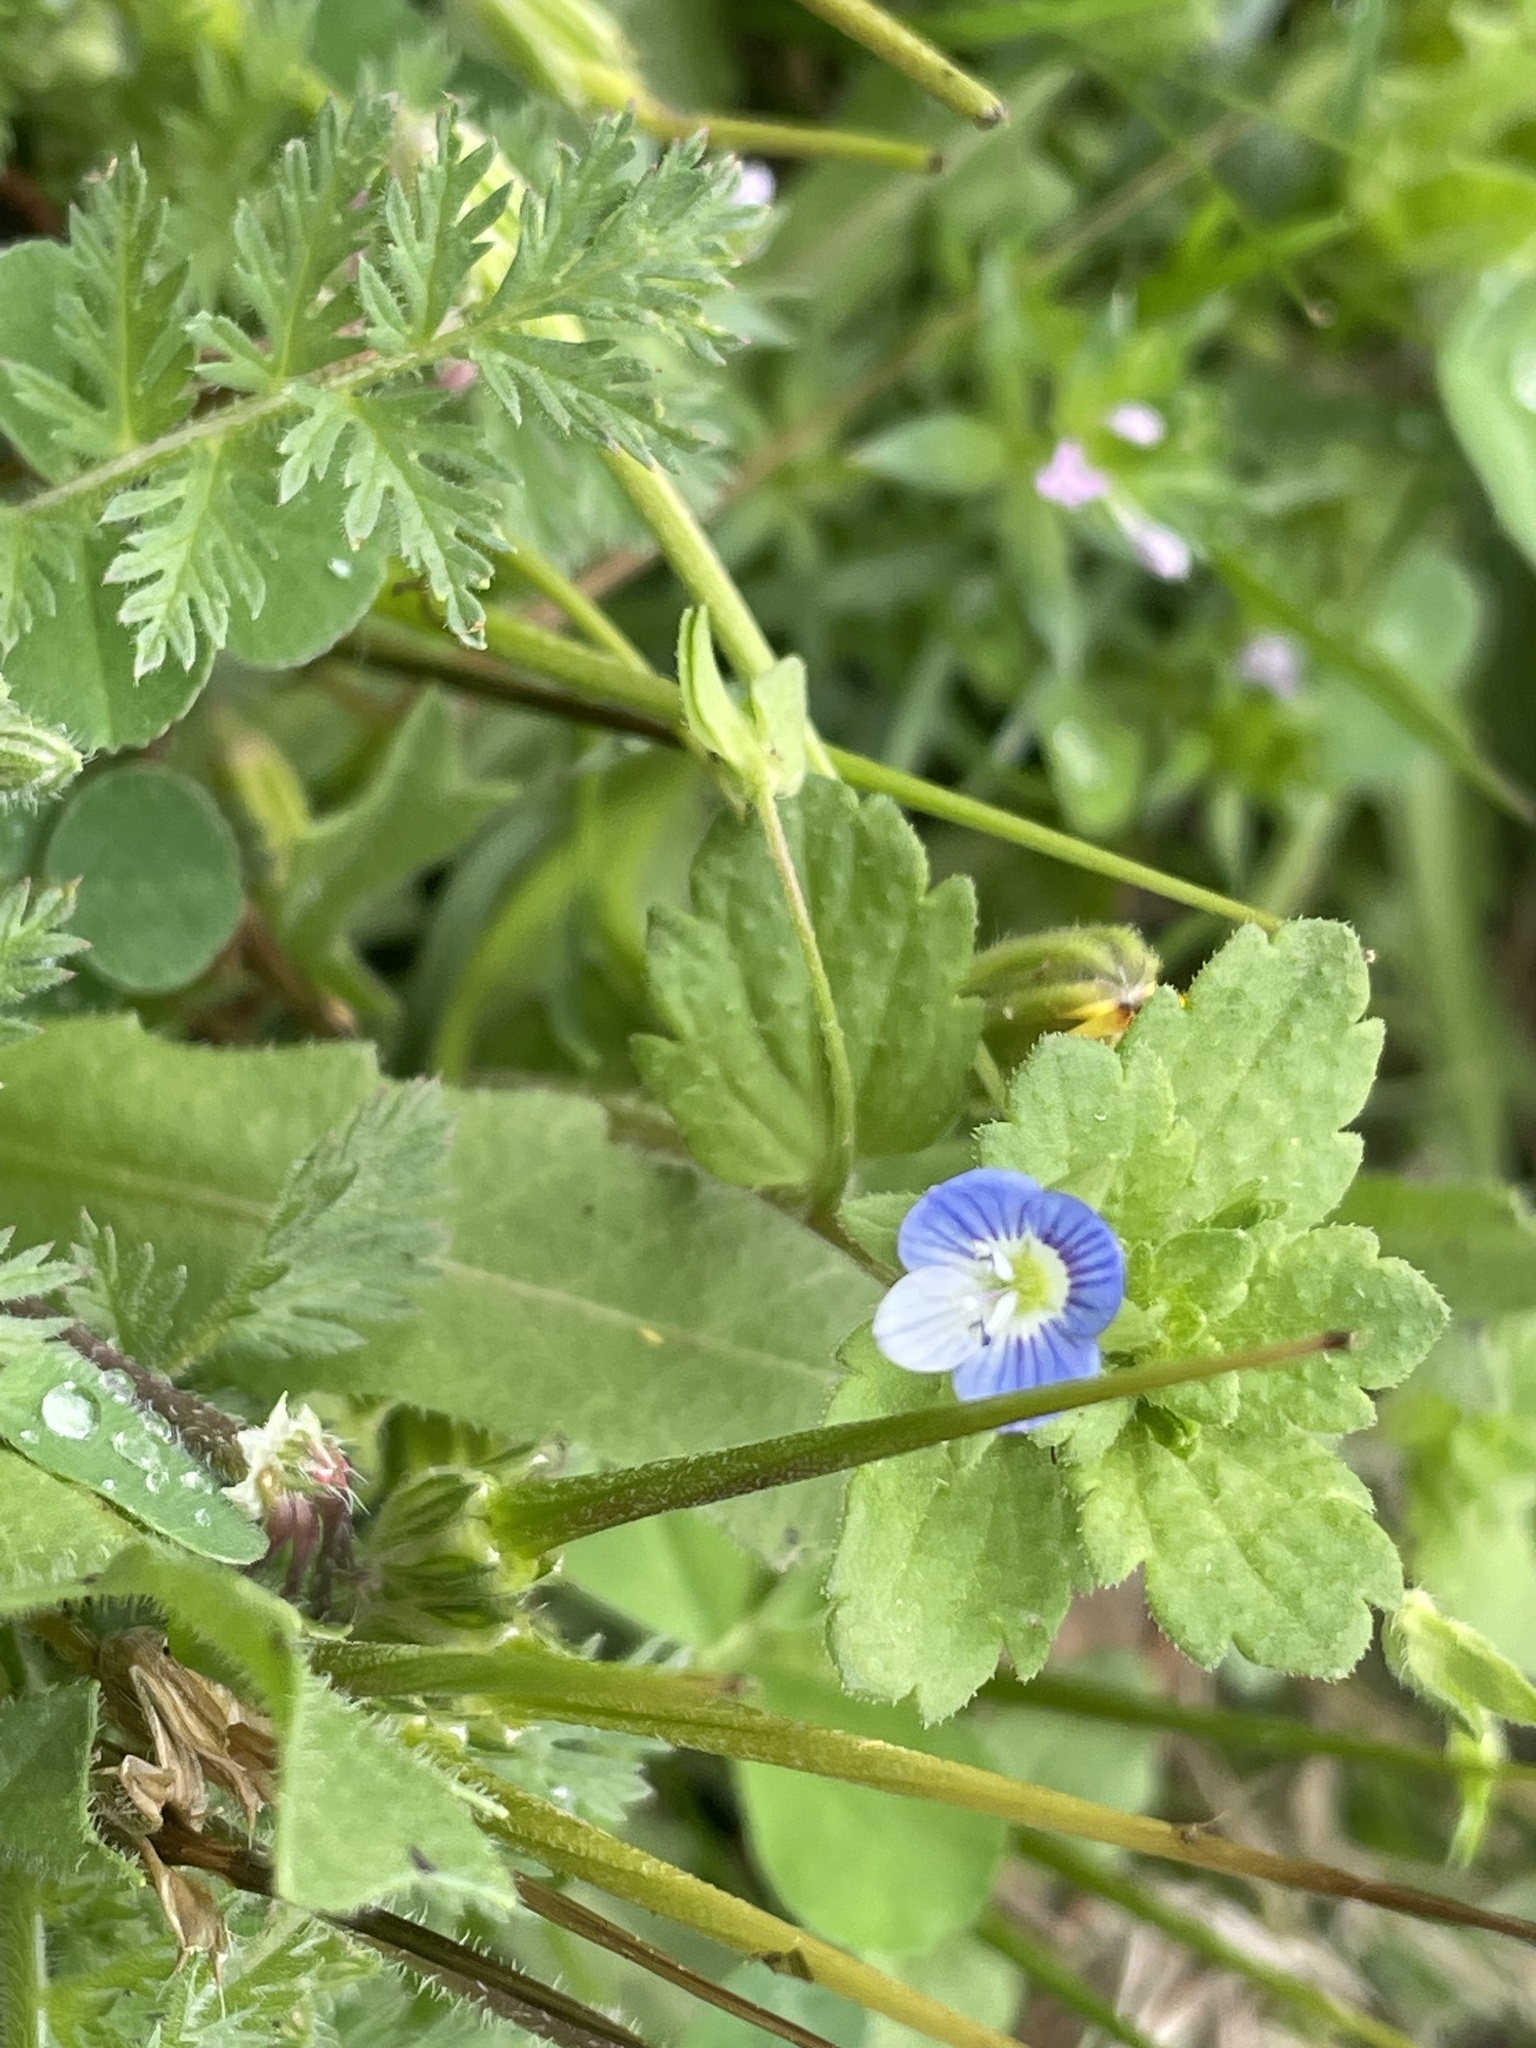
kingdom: Plantae
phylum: Tracheophyta
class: Magnoliopsida
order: Lamiales
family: Plantaginaceae
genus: Veronica
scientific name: Veronica persica
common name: Common field-speedwell
